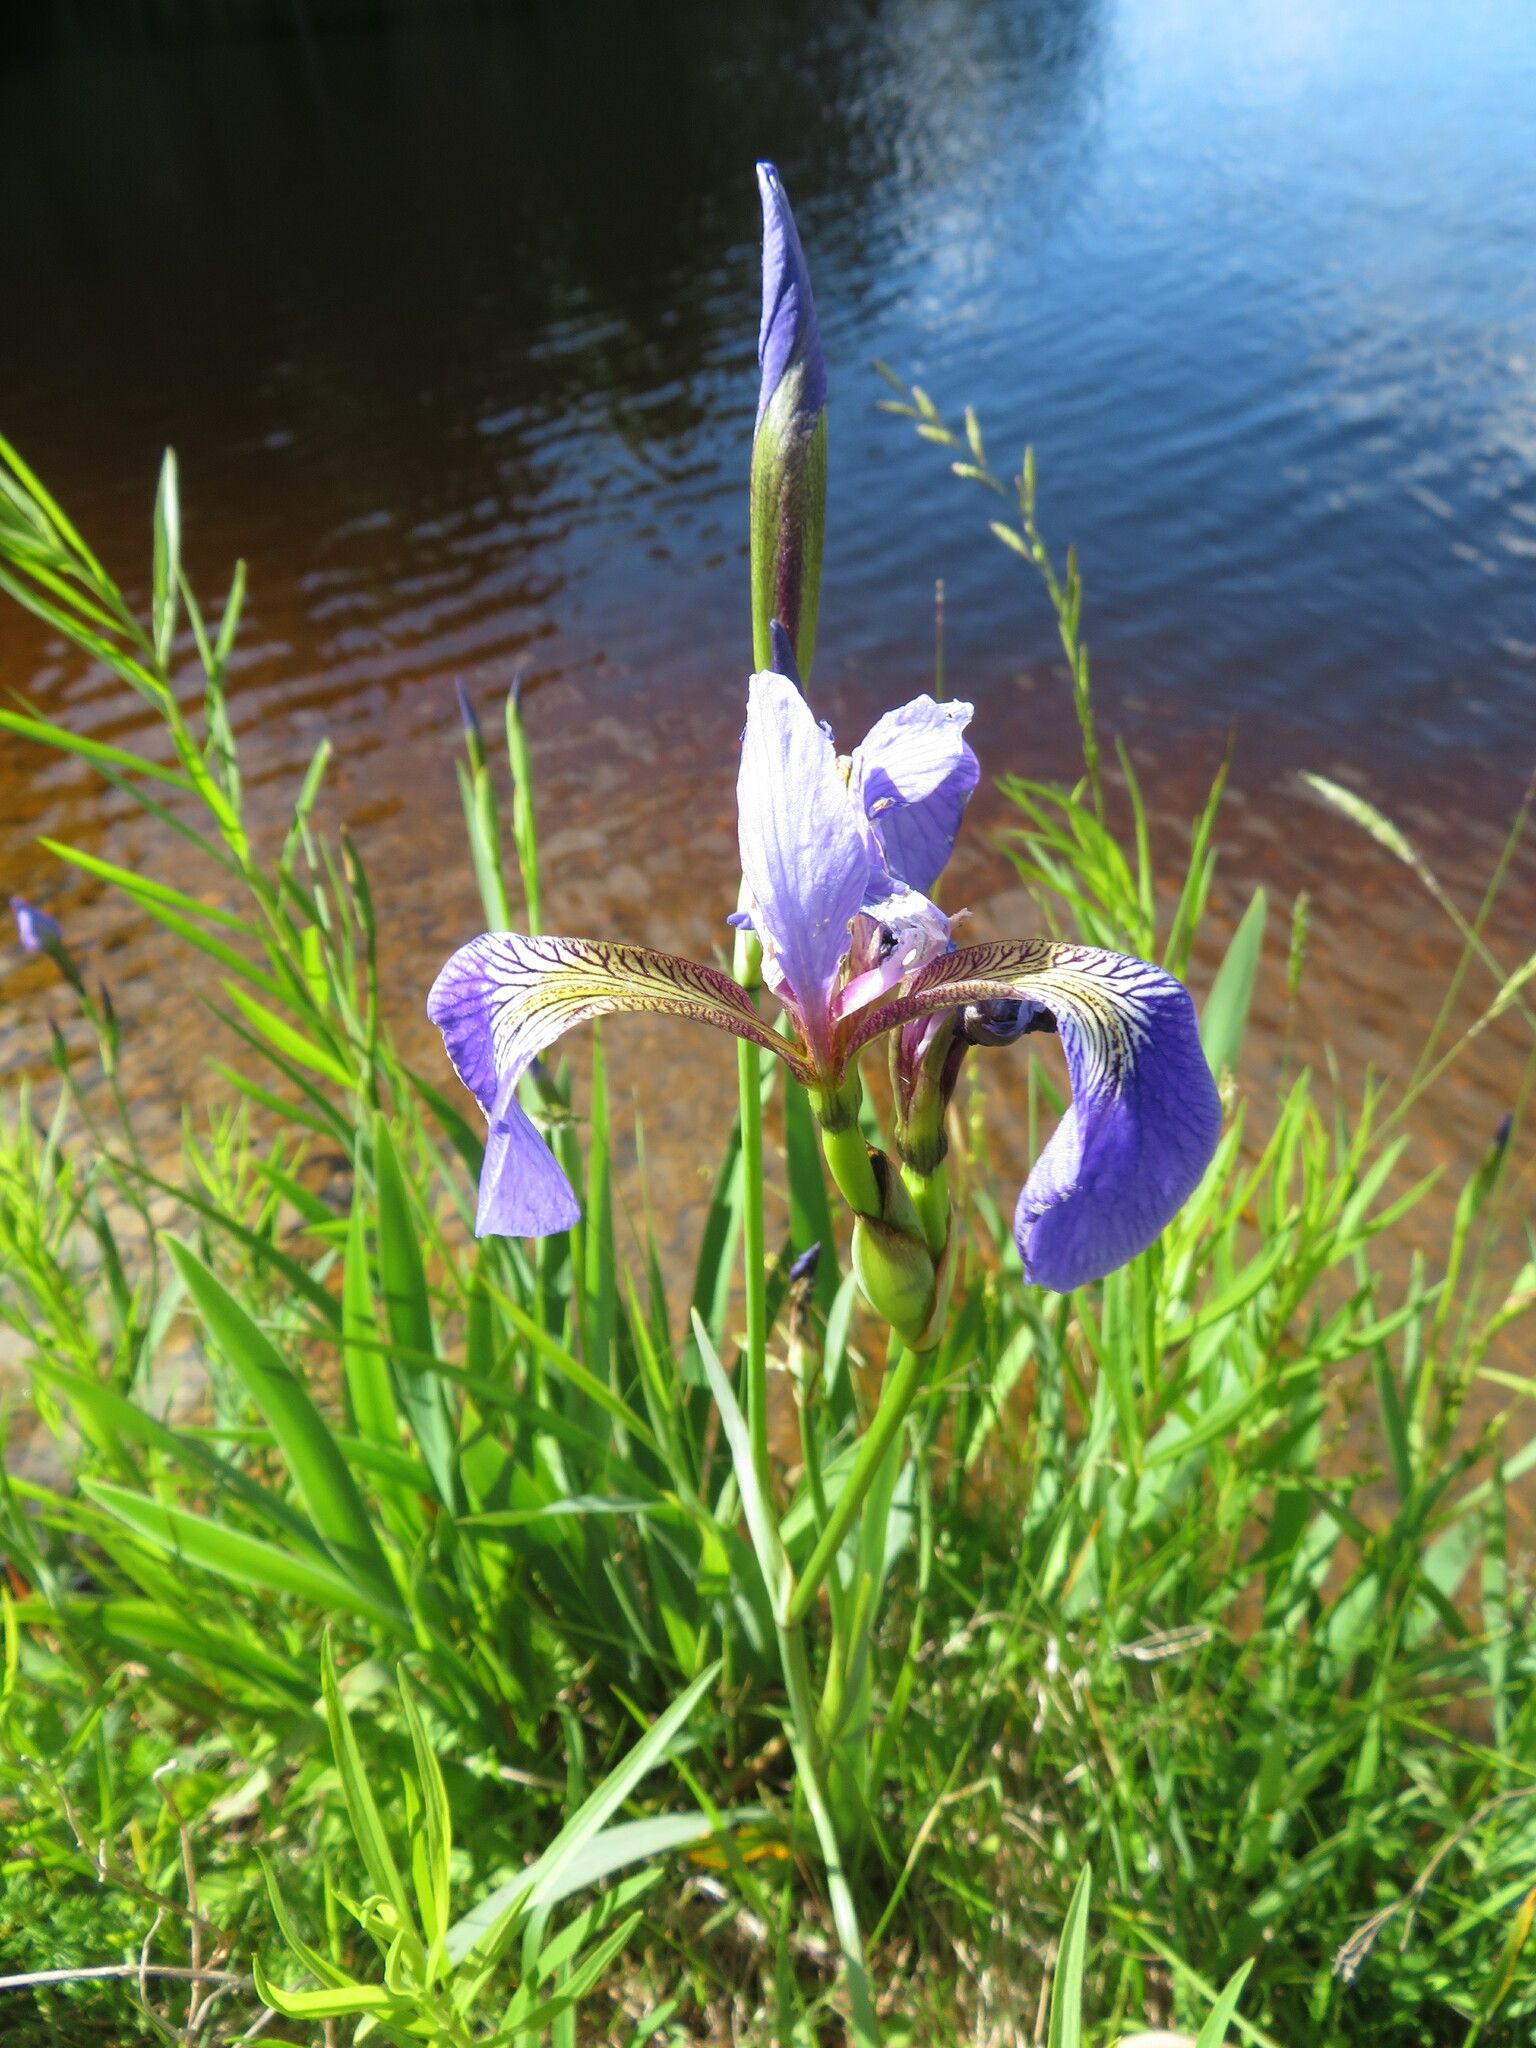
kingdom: Plantae
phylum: Tracheophyta
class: Liliopsida
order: Asparagales
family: Iridaceae
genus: Iris
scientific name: Iris versicolor
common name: Purple iris
